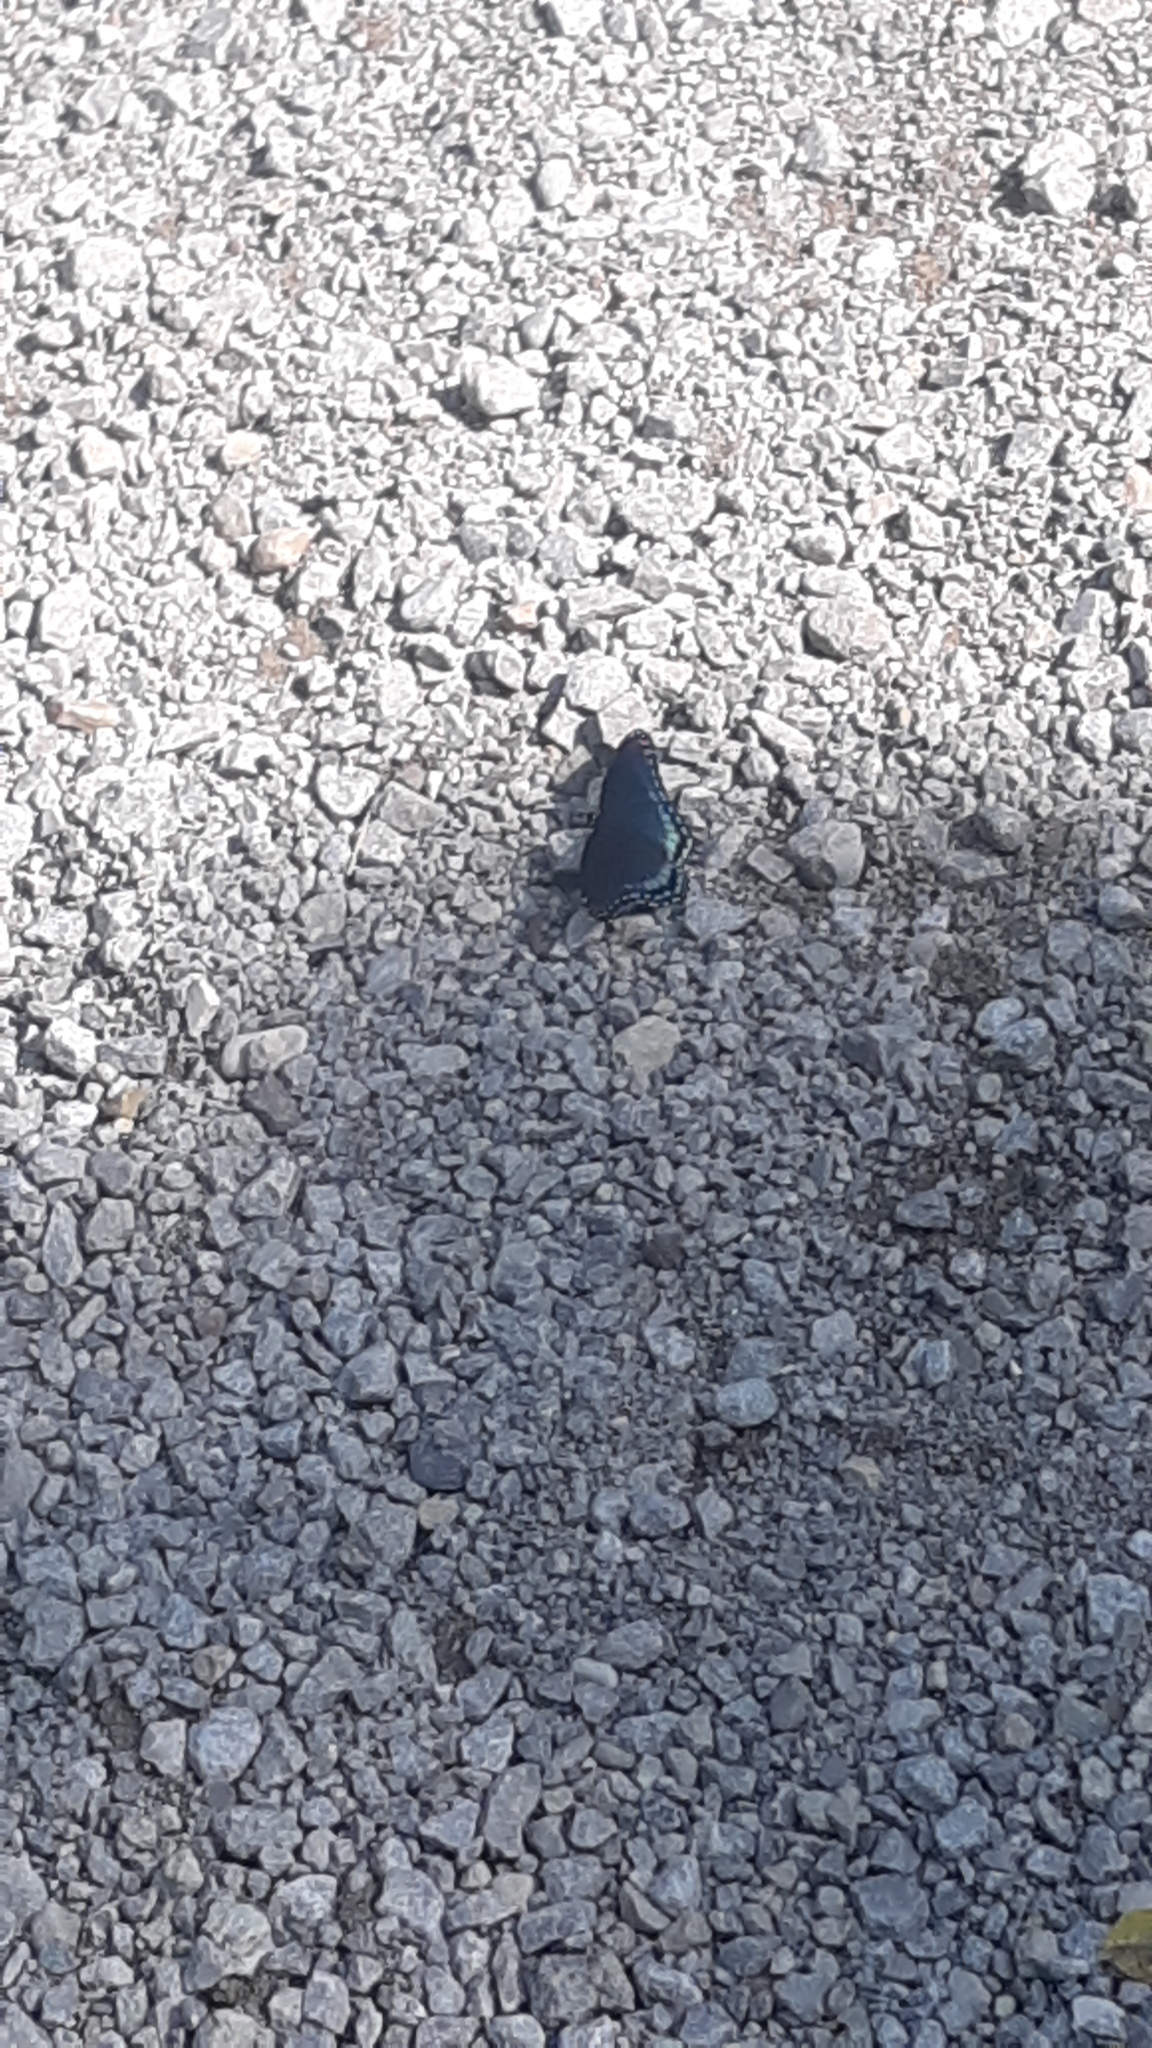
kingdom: Animalia
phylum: Arthropoda
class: Insecta
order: Lepidoptera
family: Nymphalidae
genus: Limenitis
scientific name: Limenitis astyanax
